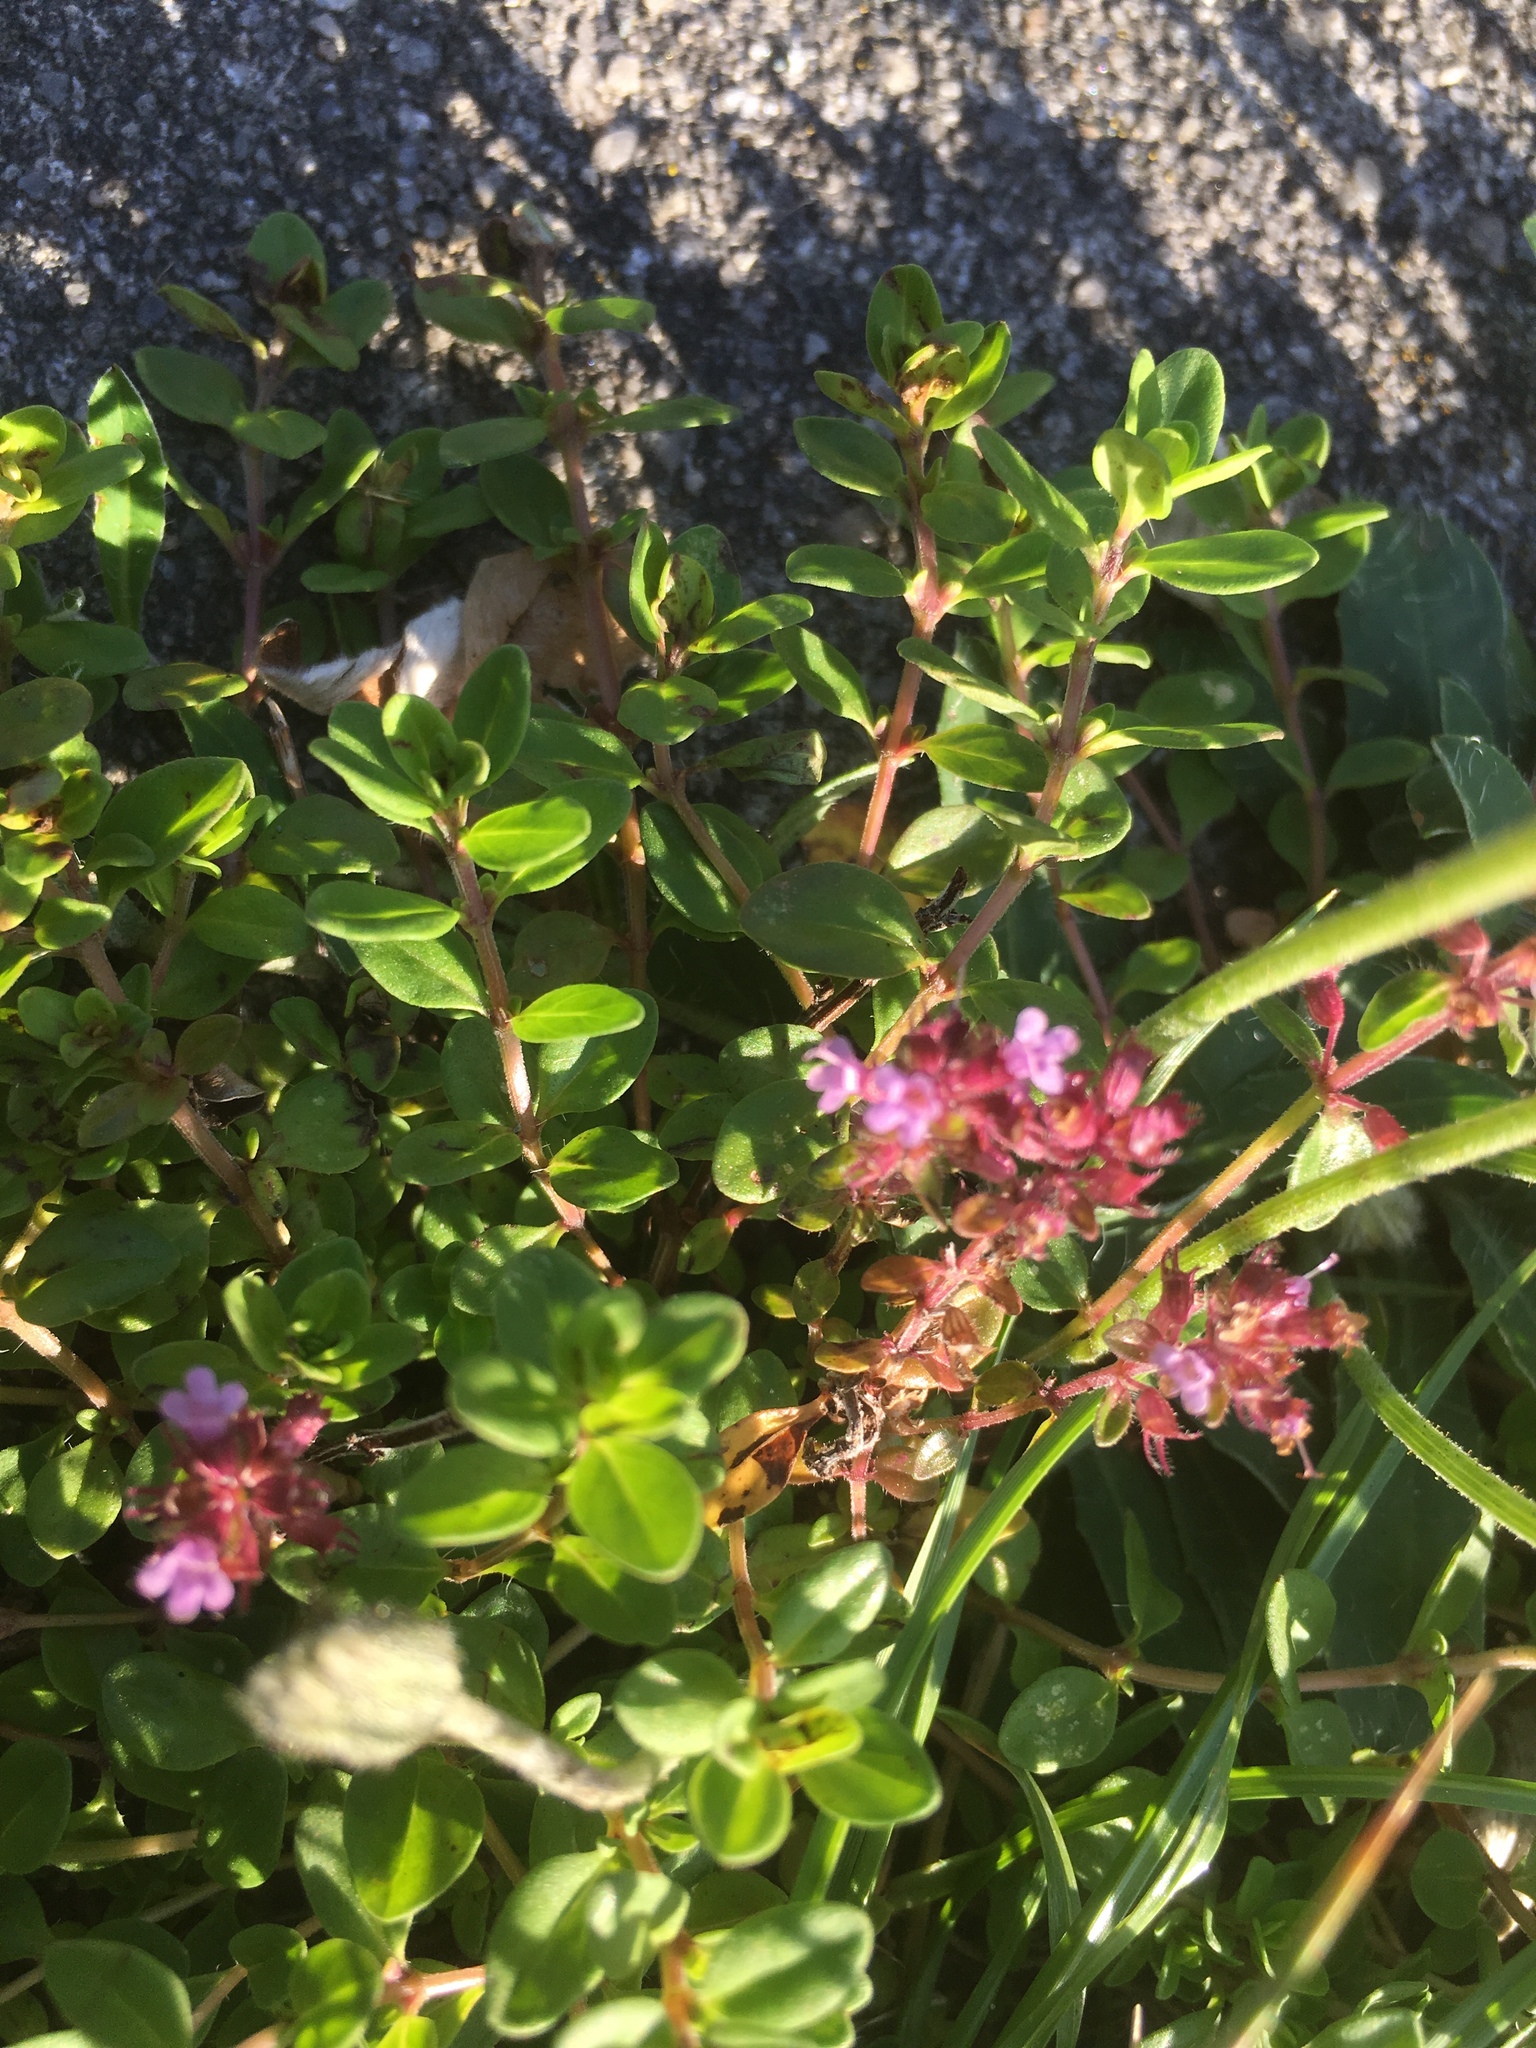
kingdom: Plantae
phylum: Tracheophyta
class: Magnoliopsida
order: Lamiales
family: Lamiaceae
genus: Thymus
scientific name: Thymus serpyllum
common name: Breckland thyme
